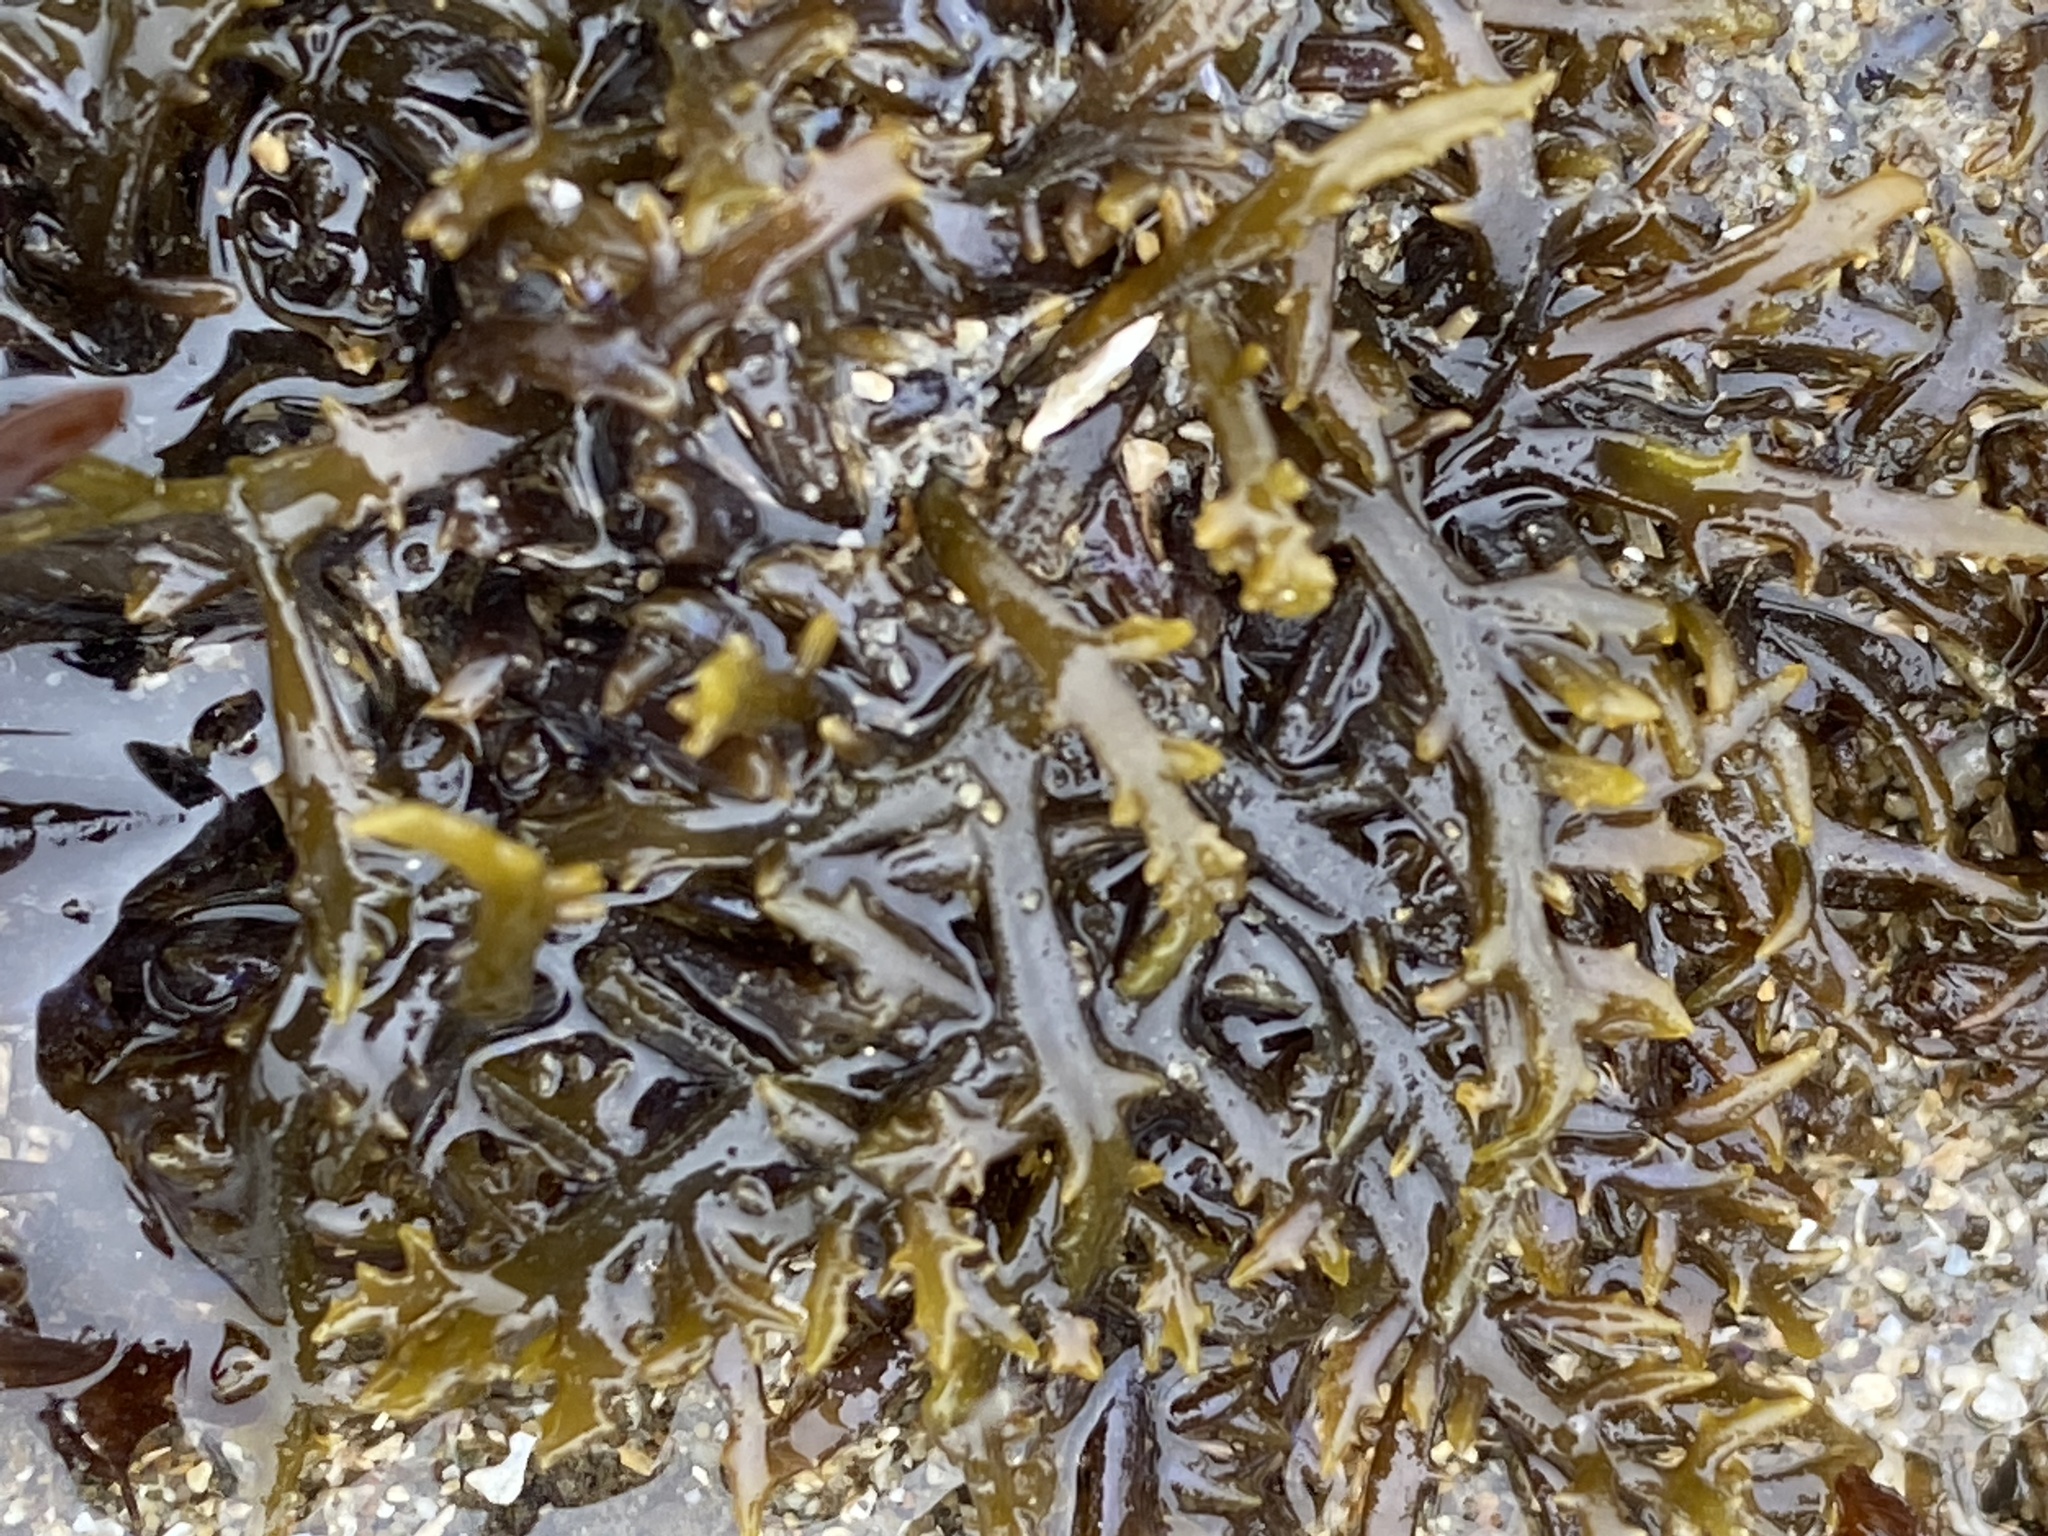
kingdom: Plantae
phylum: Rhodophyta
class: Florideophyceae
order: Gigartinales
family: Gigartinaceae
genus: Chondracanthus
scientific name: Chondracanthus canaliculatus
